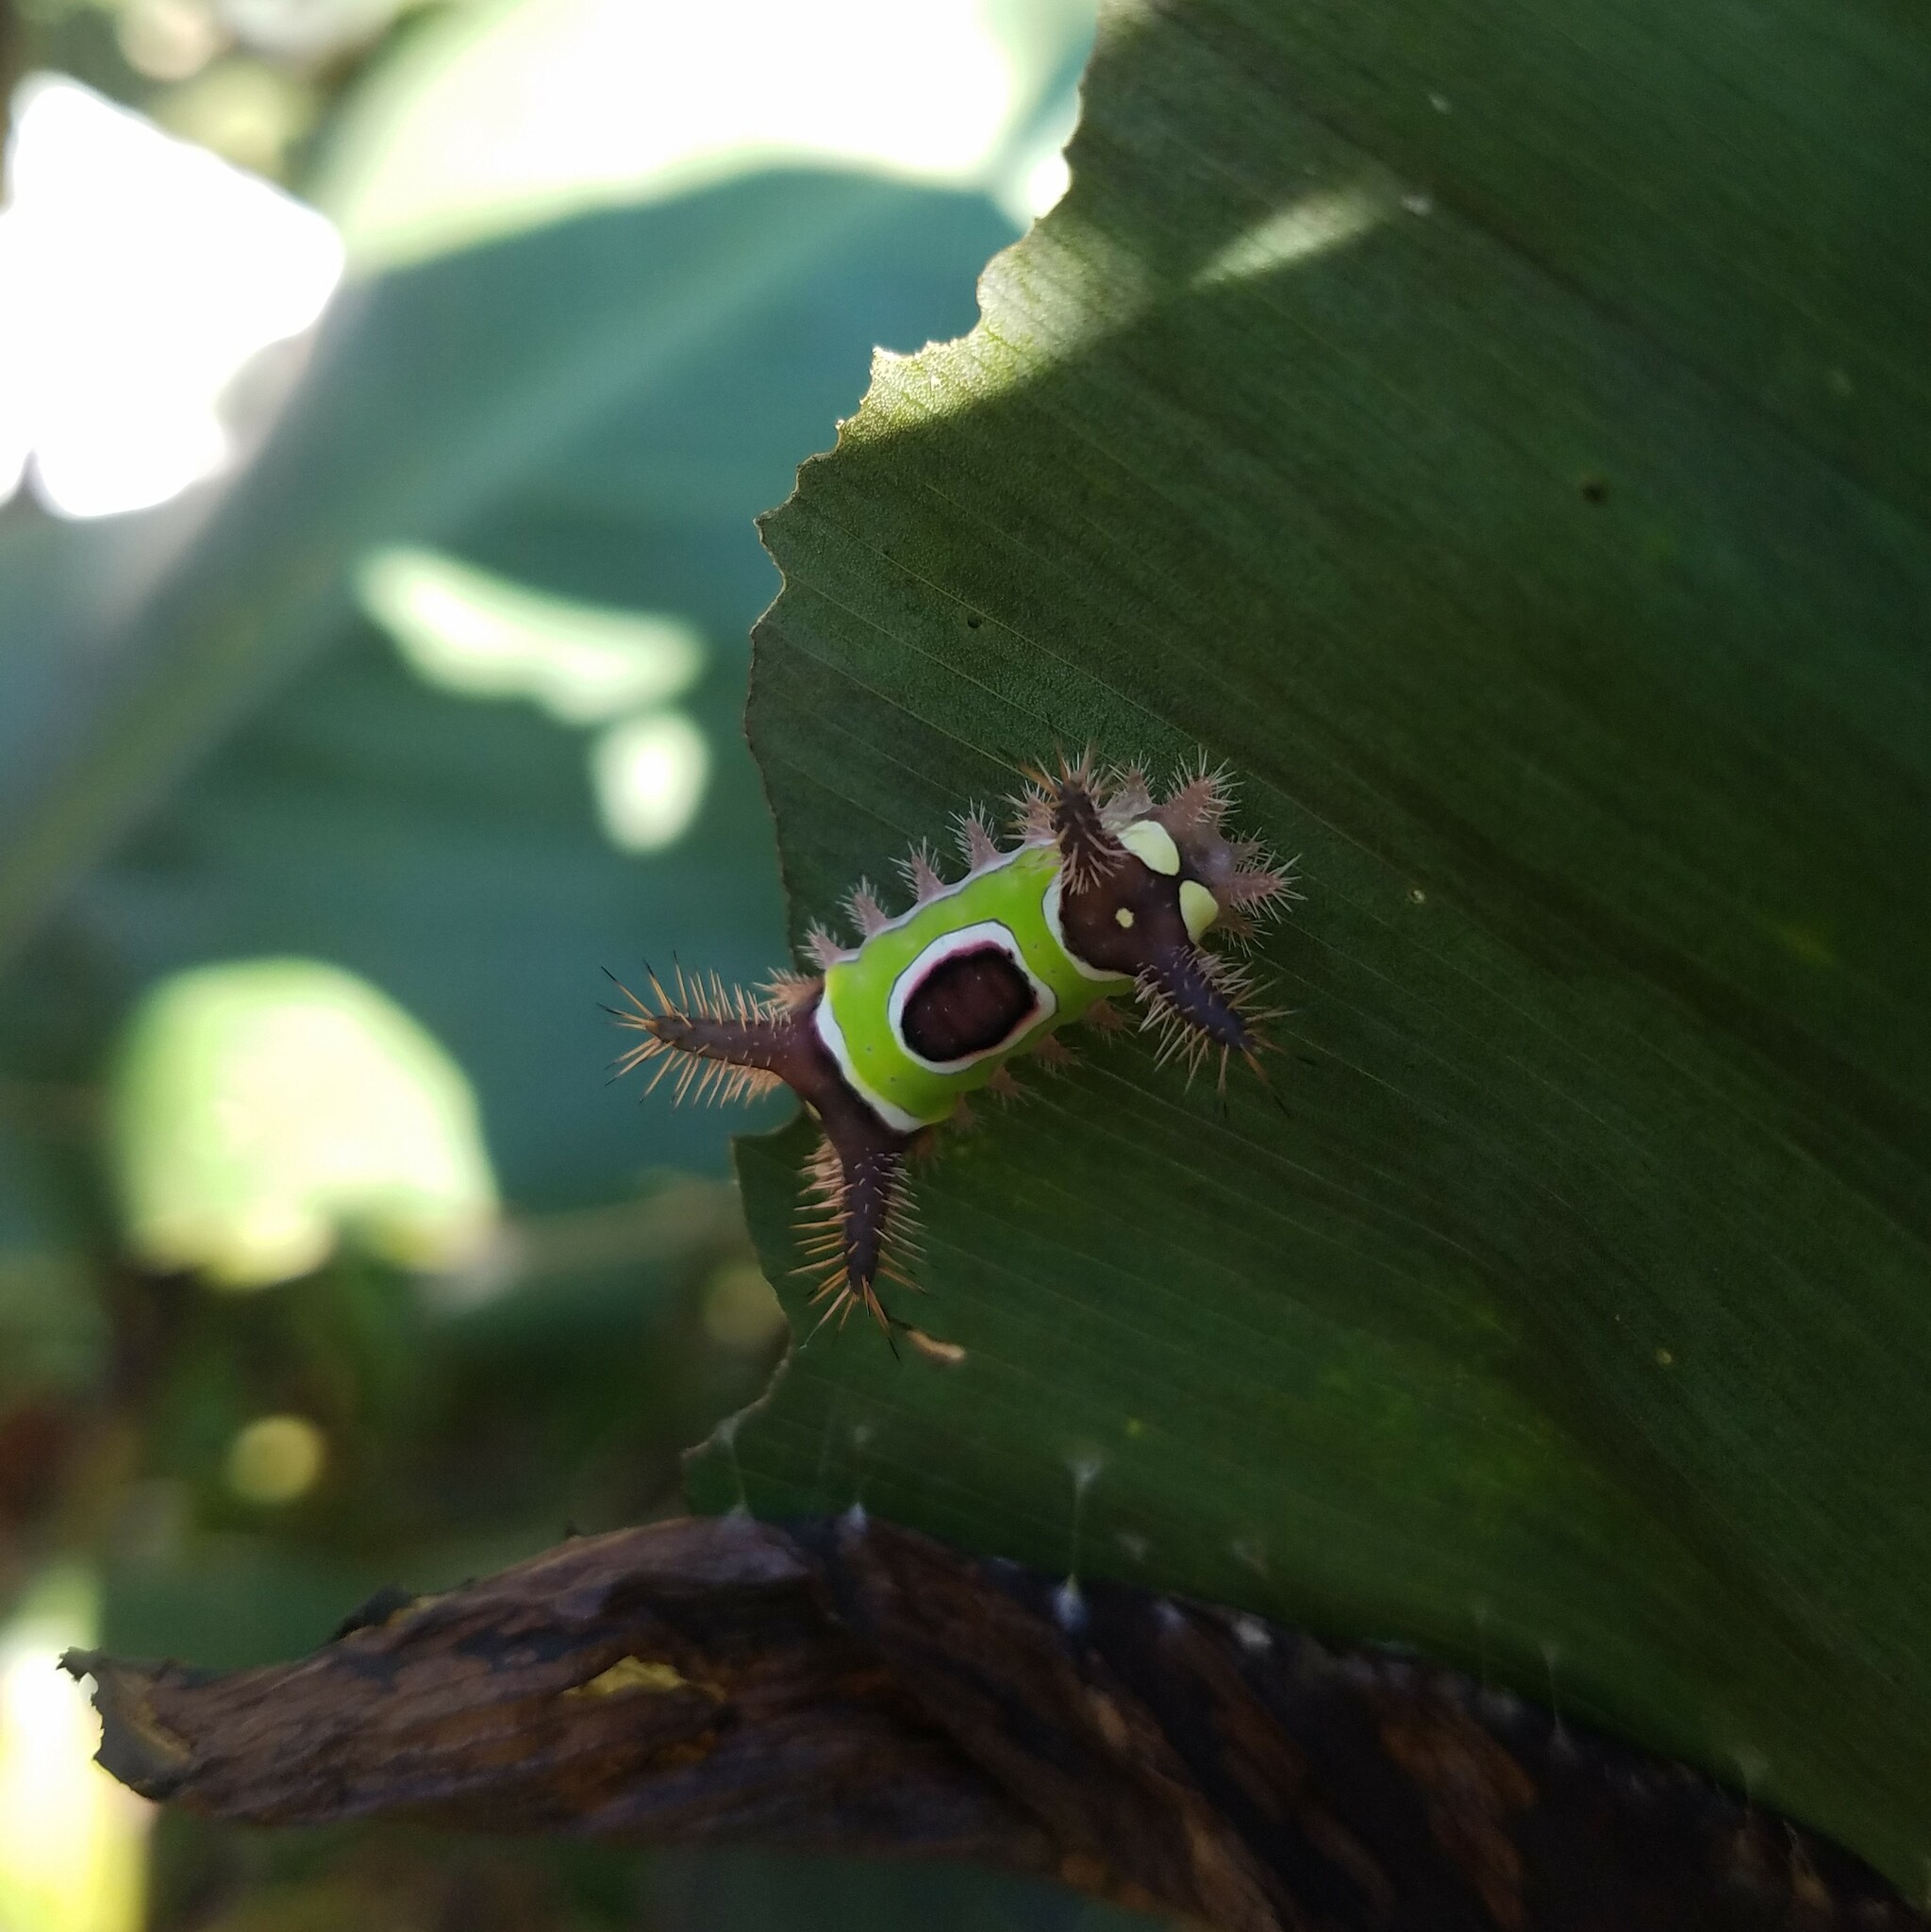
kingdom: Animalia
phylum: Arthropoda
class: Insecta
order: Lepidoptera
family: Limacodidae
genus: Acharia
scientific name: Acharia stimulea
